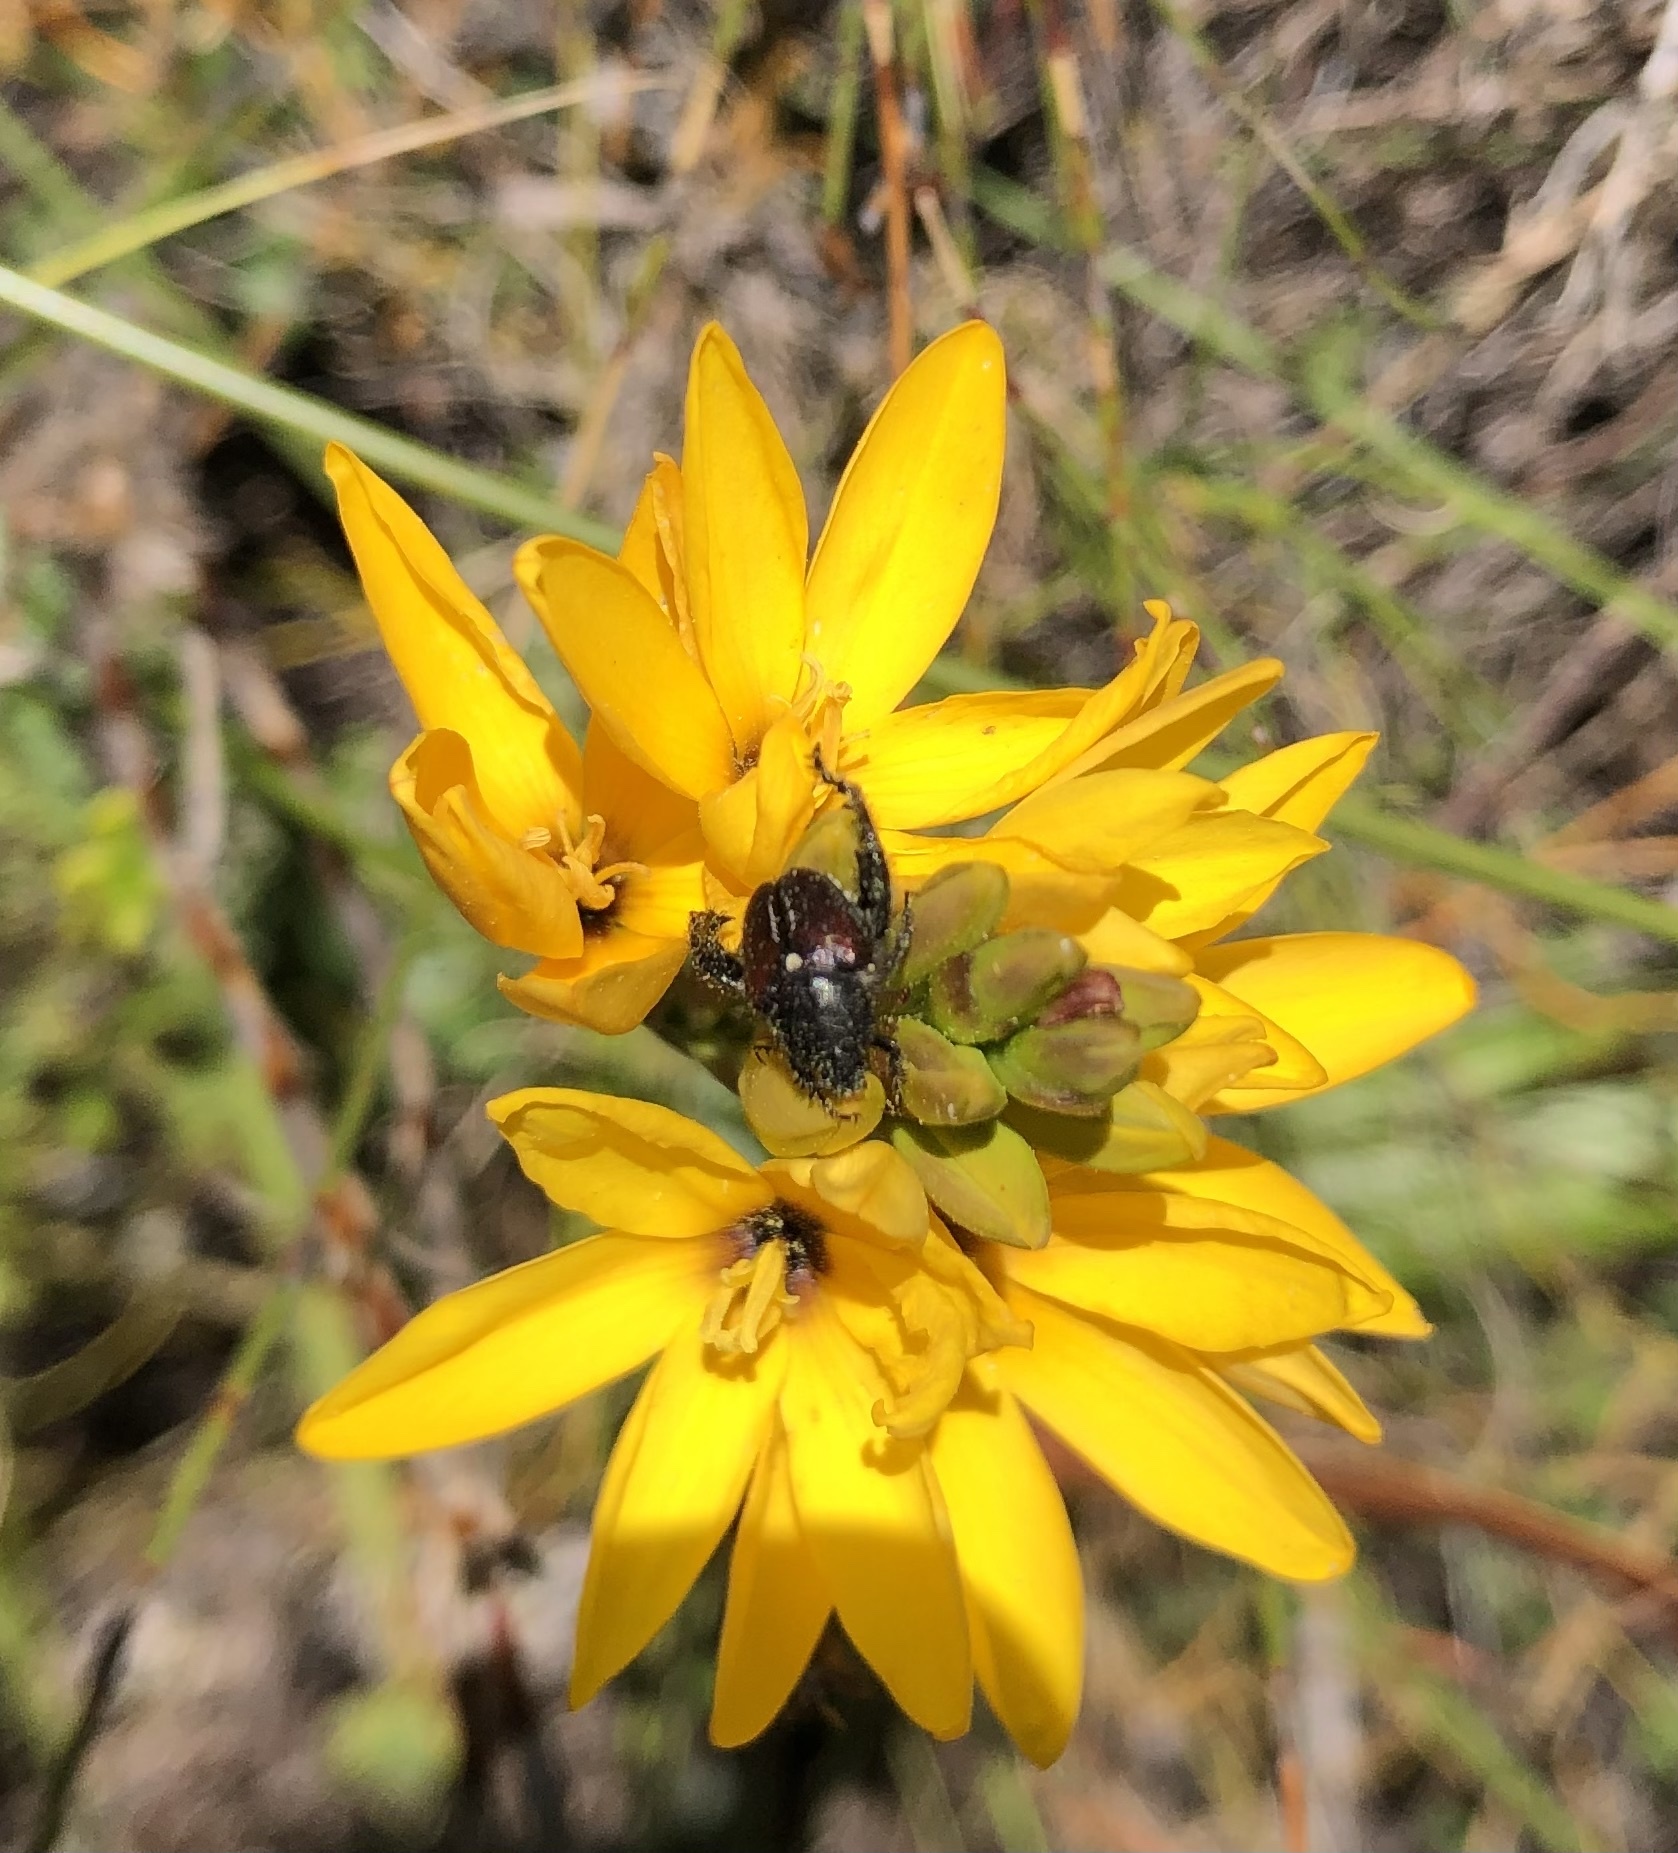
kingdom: Plantae
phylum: Tracheophyta
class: Liliopsida
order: Asparagales
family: Iridaceae
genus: Ixia
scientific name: Ixia dubia
